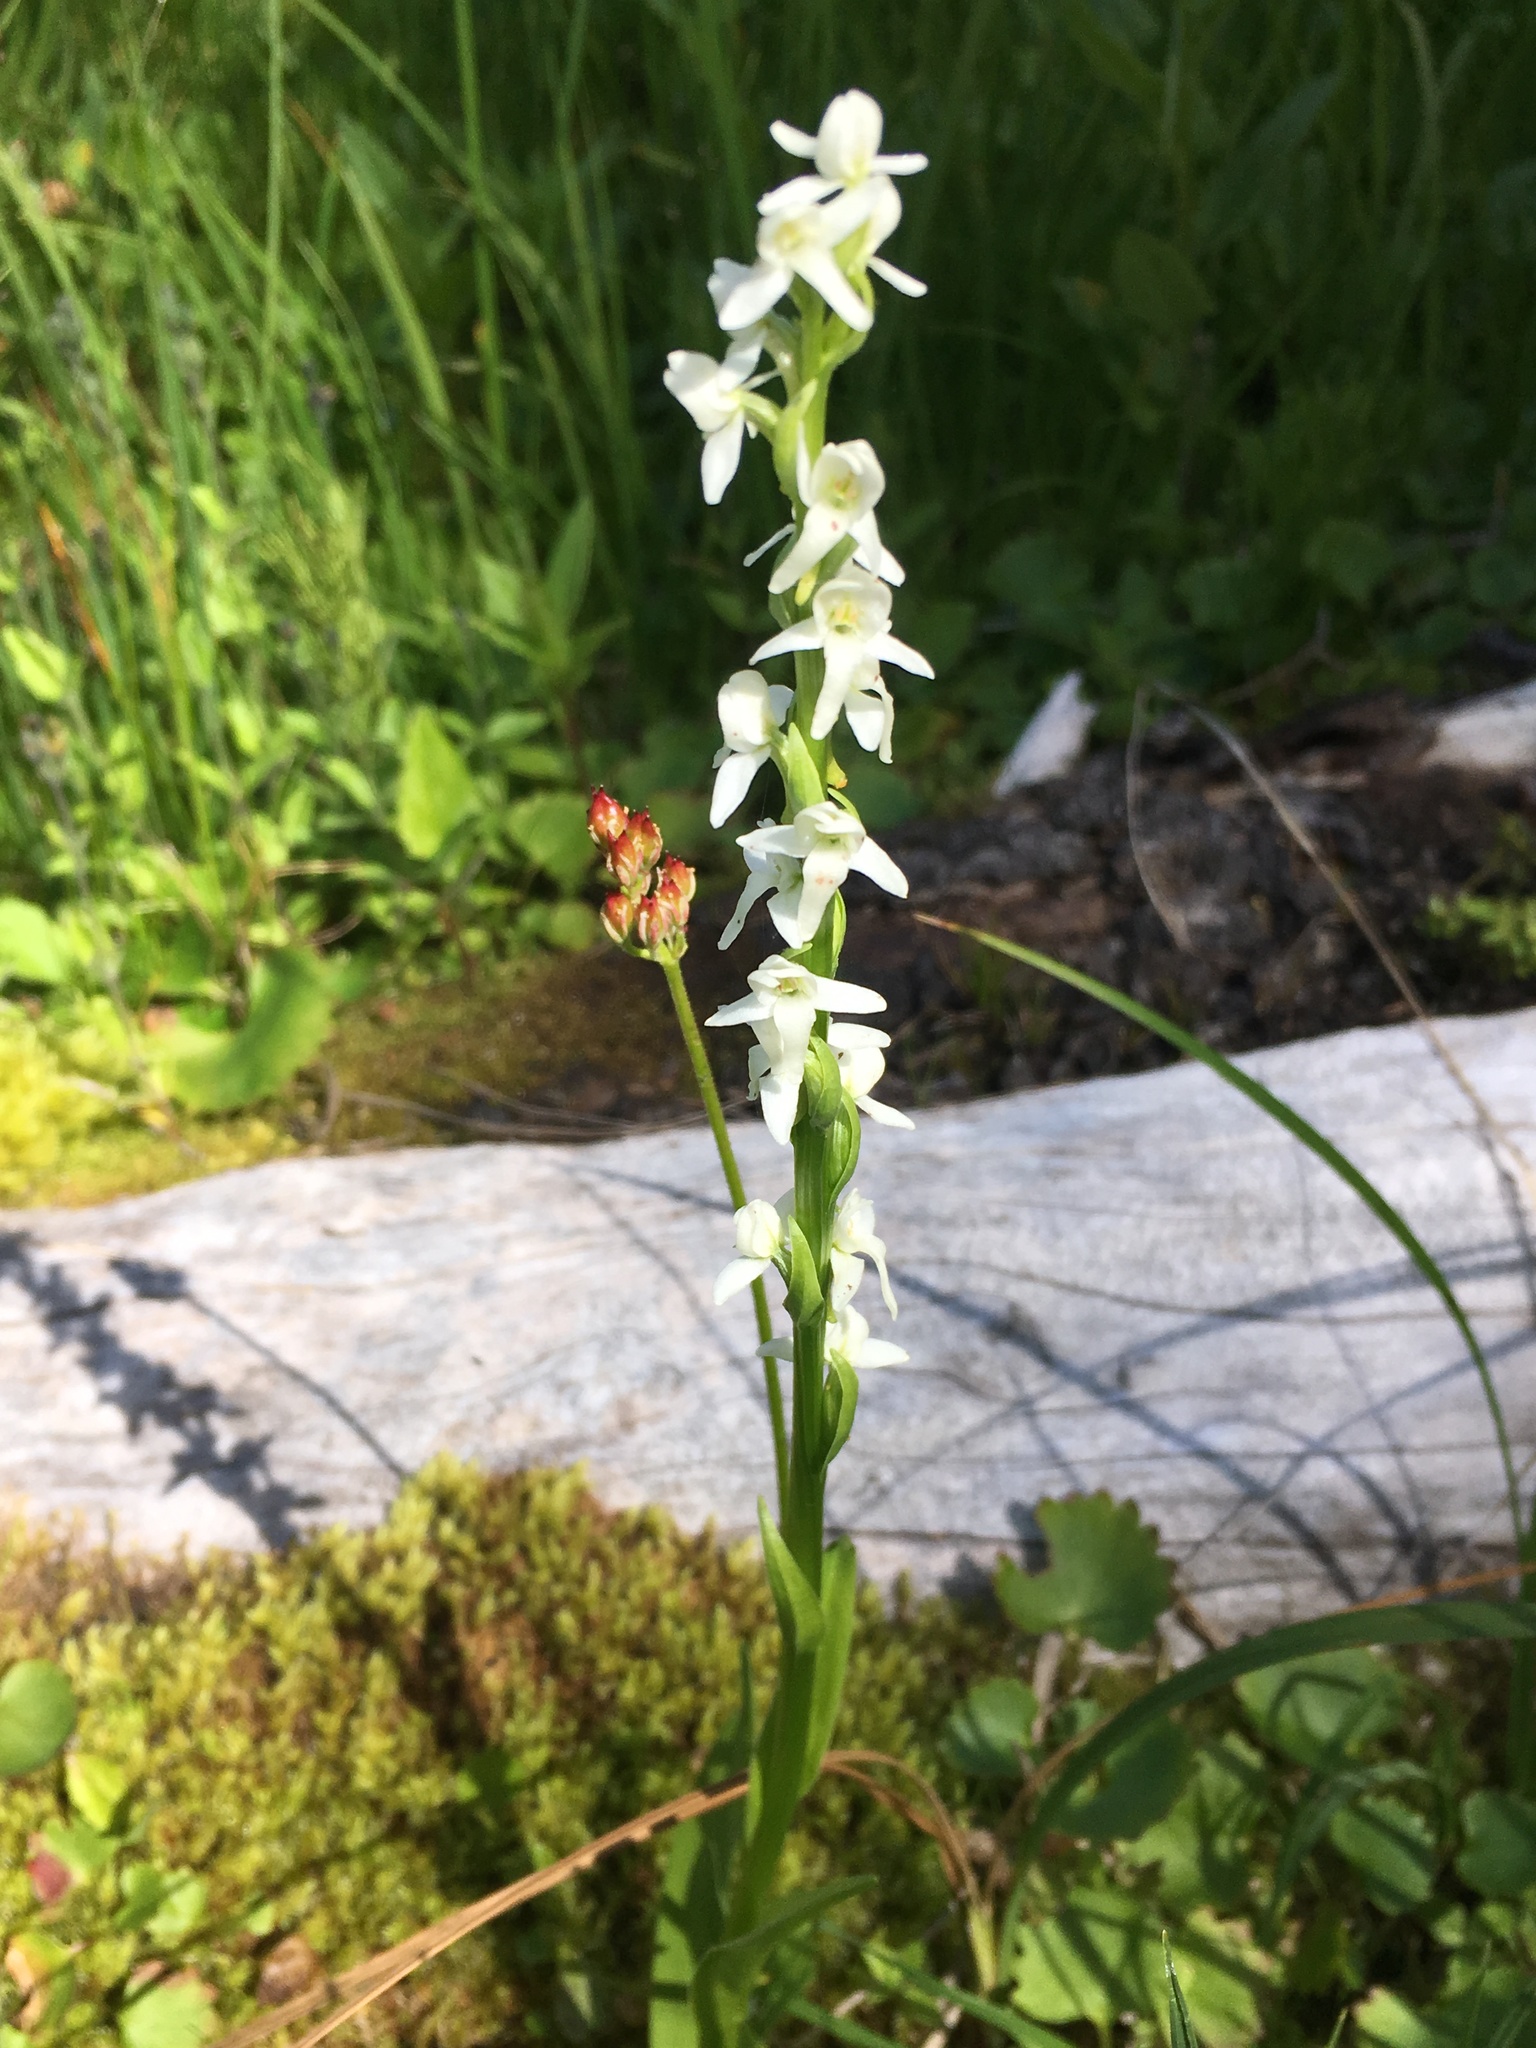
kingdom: Plantae
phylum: Tracheophyta
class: Liliopsida
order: Asparagales
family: Orchidaceae
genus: Platanthera
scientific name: Platanthera dilatata
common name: Bog candles
